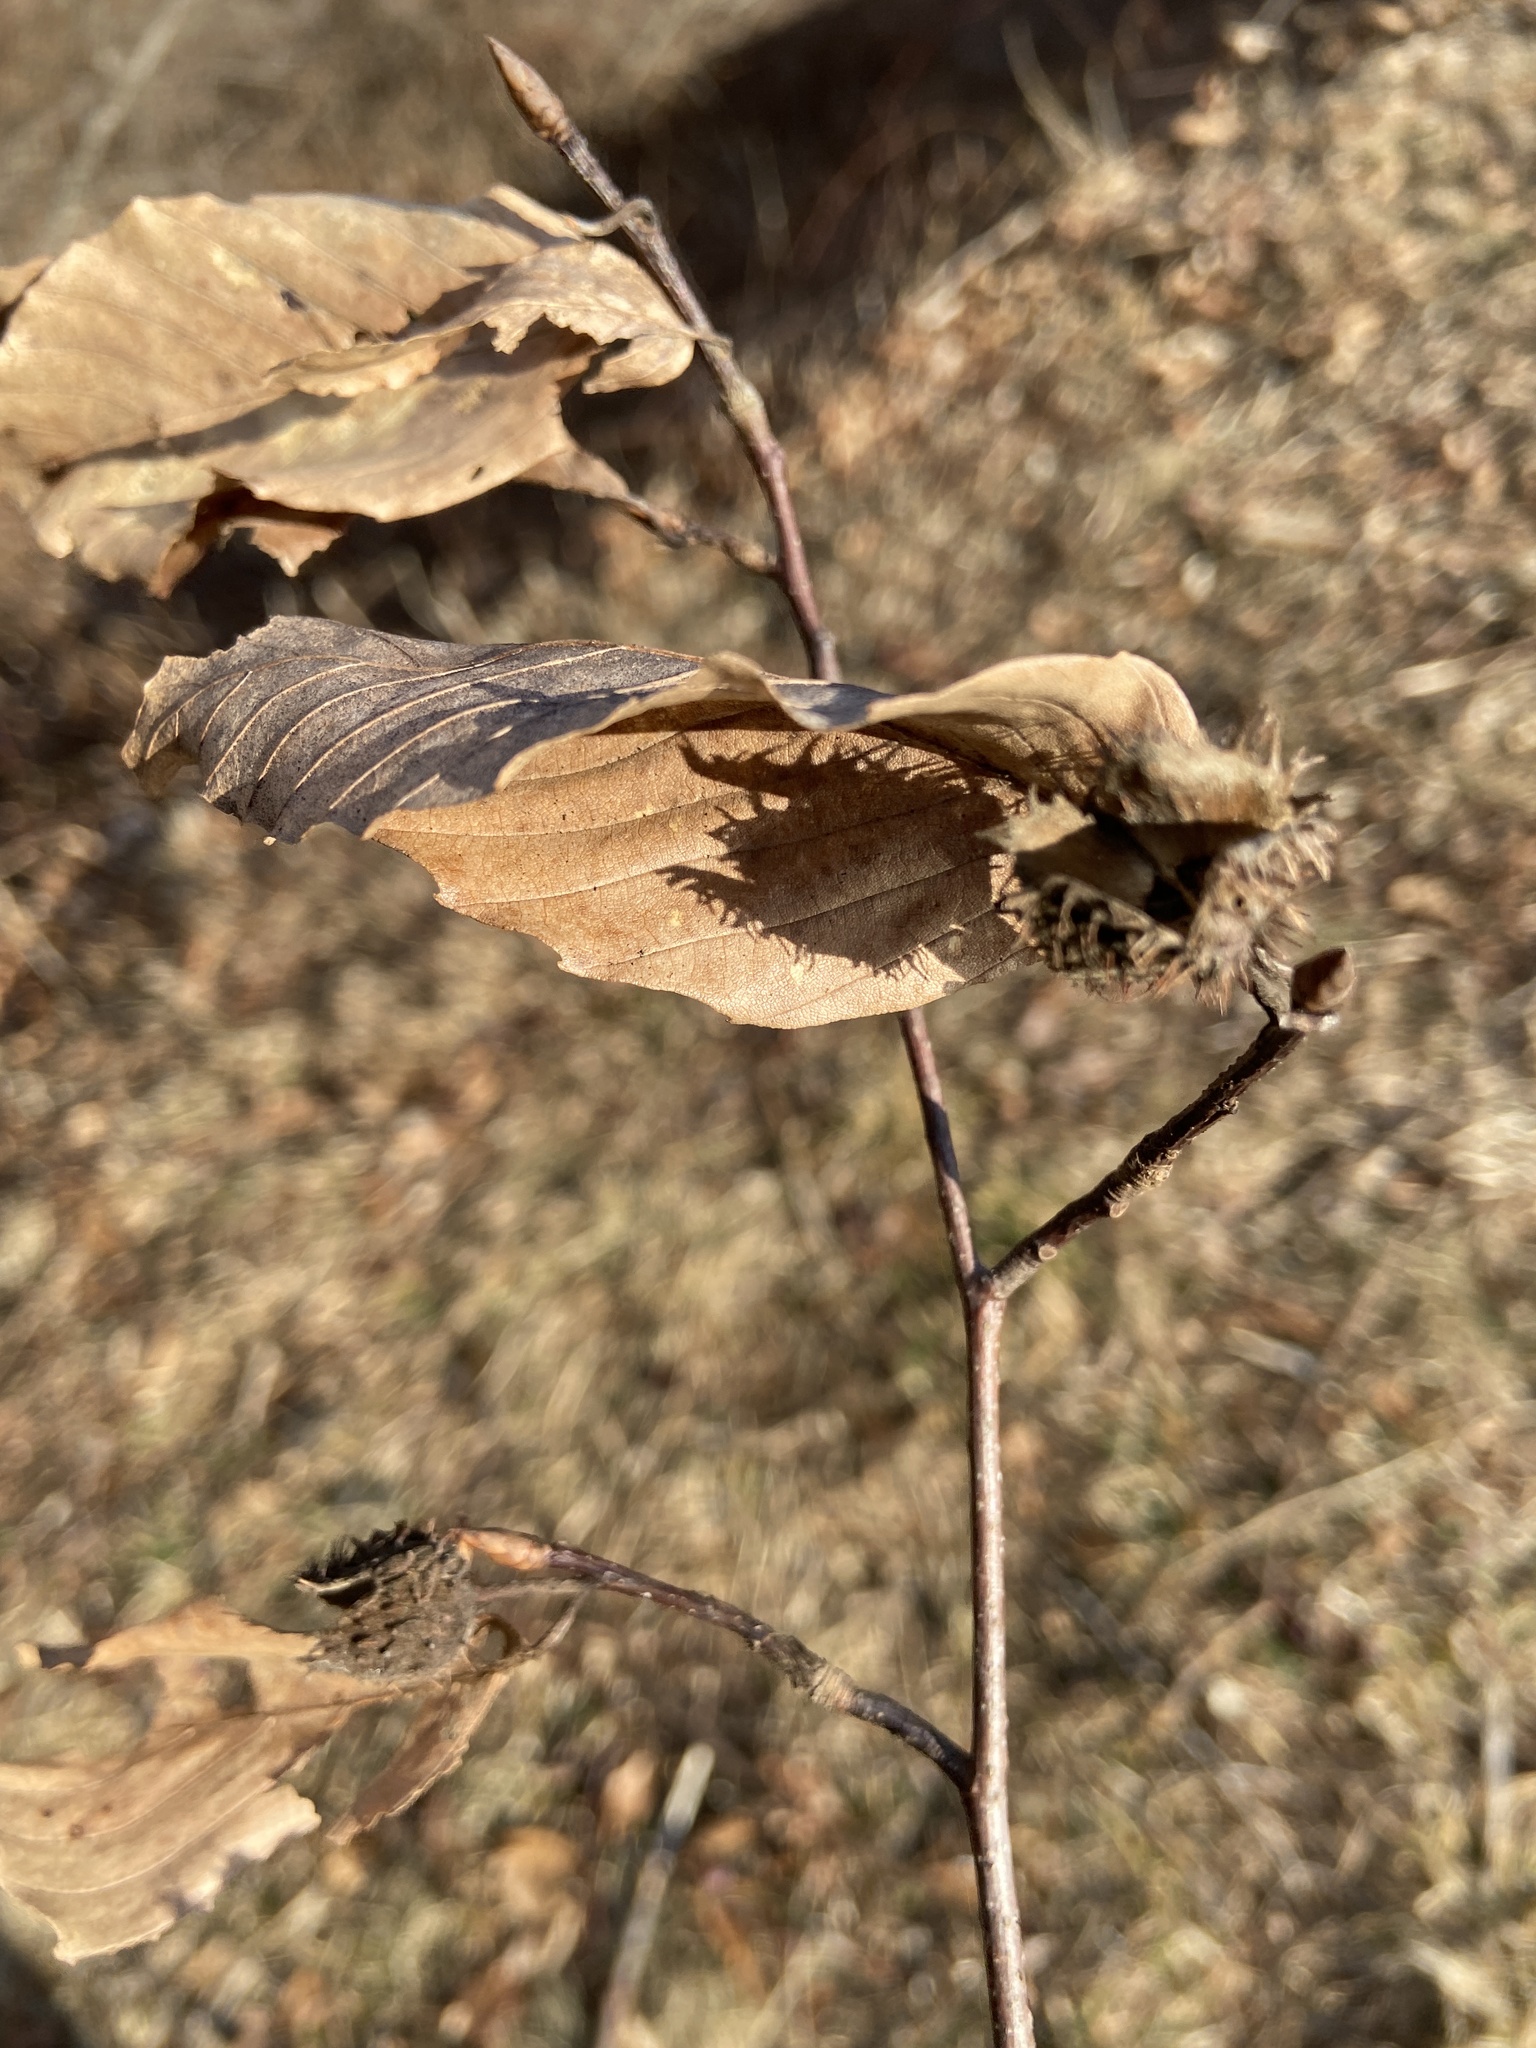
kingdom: Plantae
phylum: Tracheophyta
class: Magnoliopsida
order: Fagales
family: Fagaceae
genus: Fagus
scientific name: Fagus grandifolia
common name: American beech
